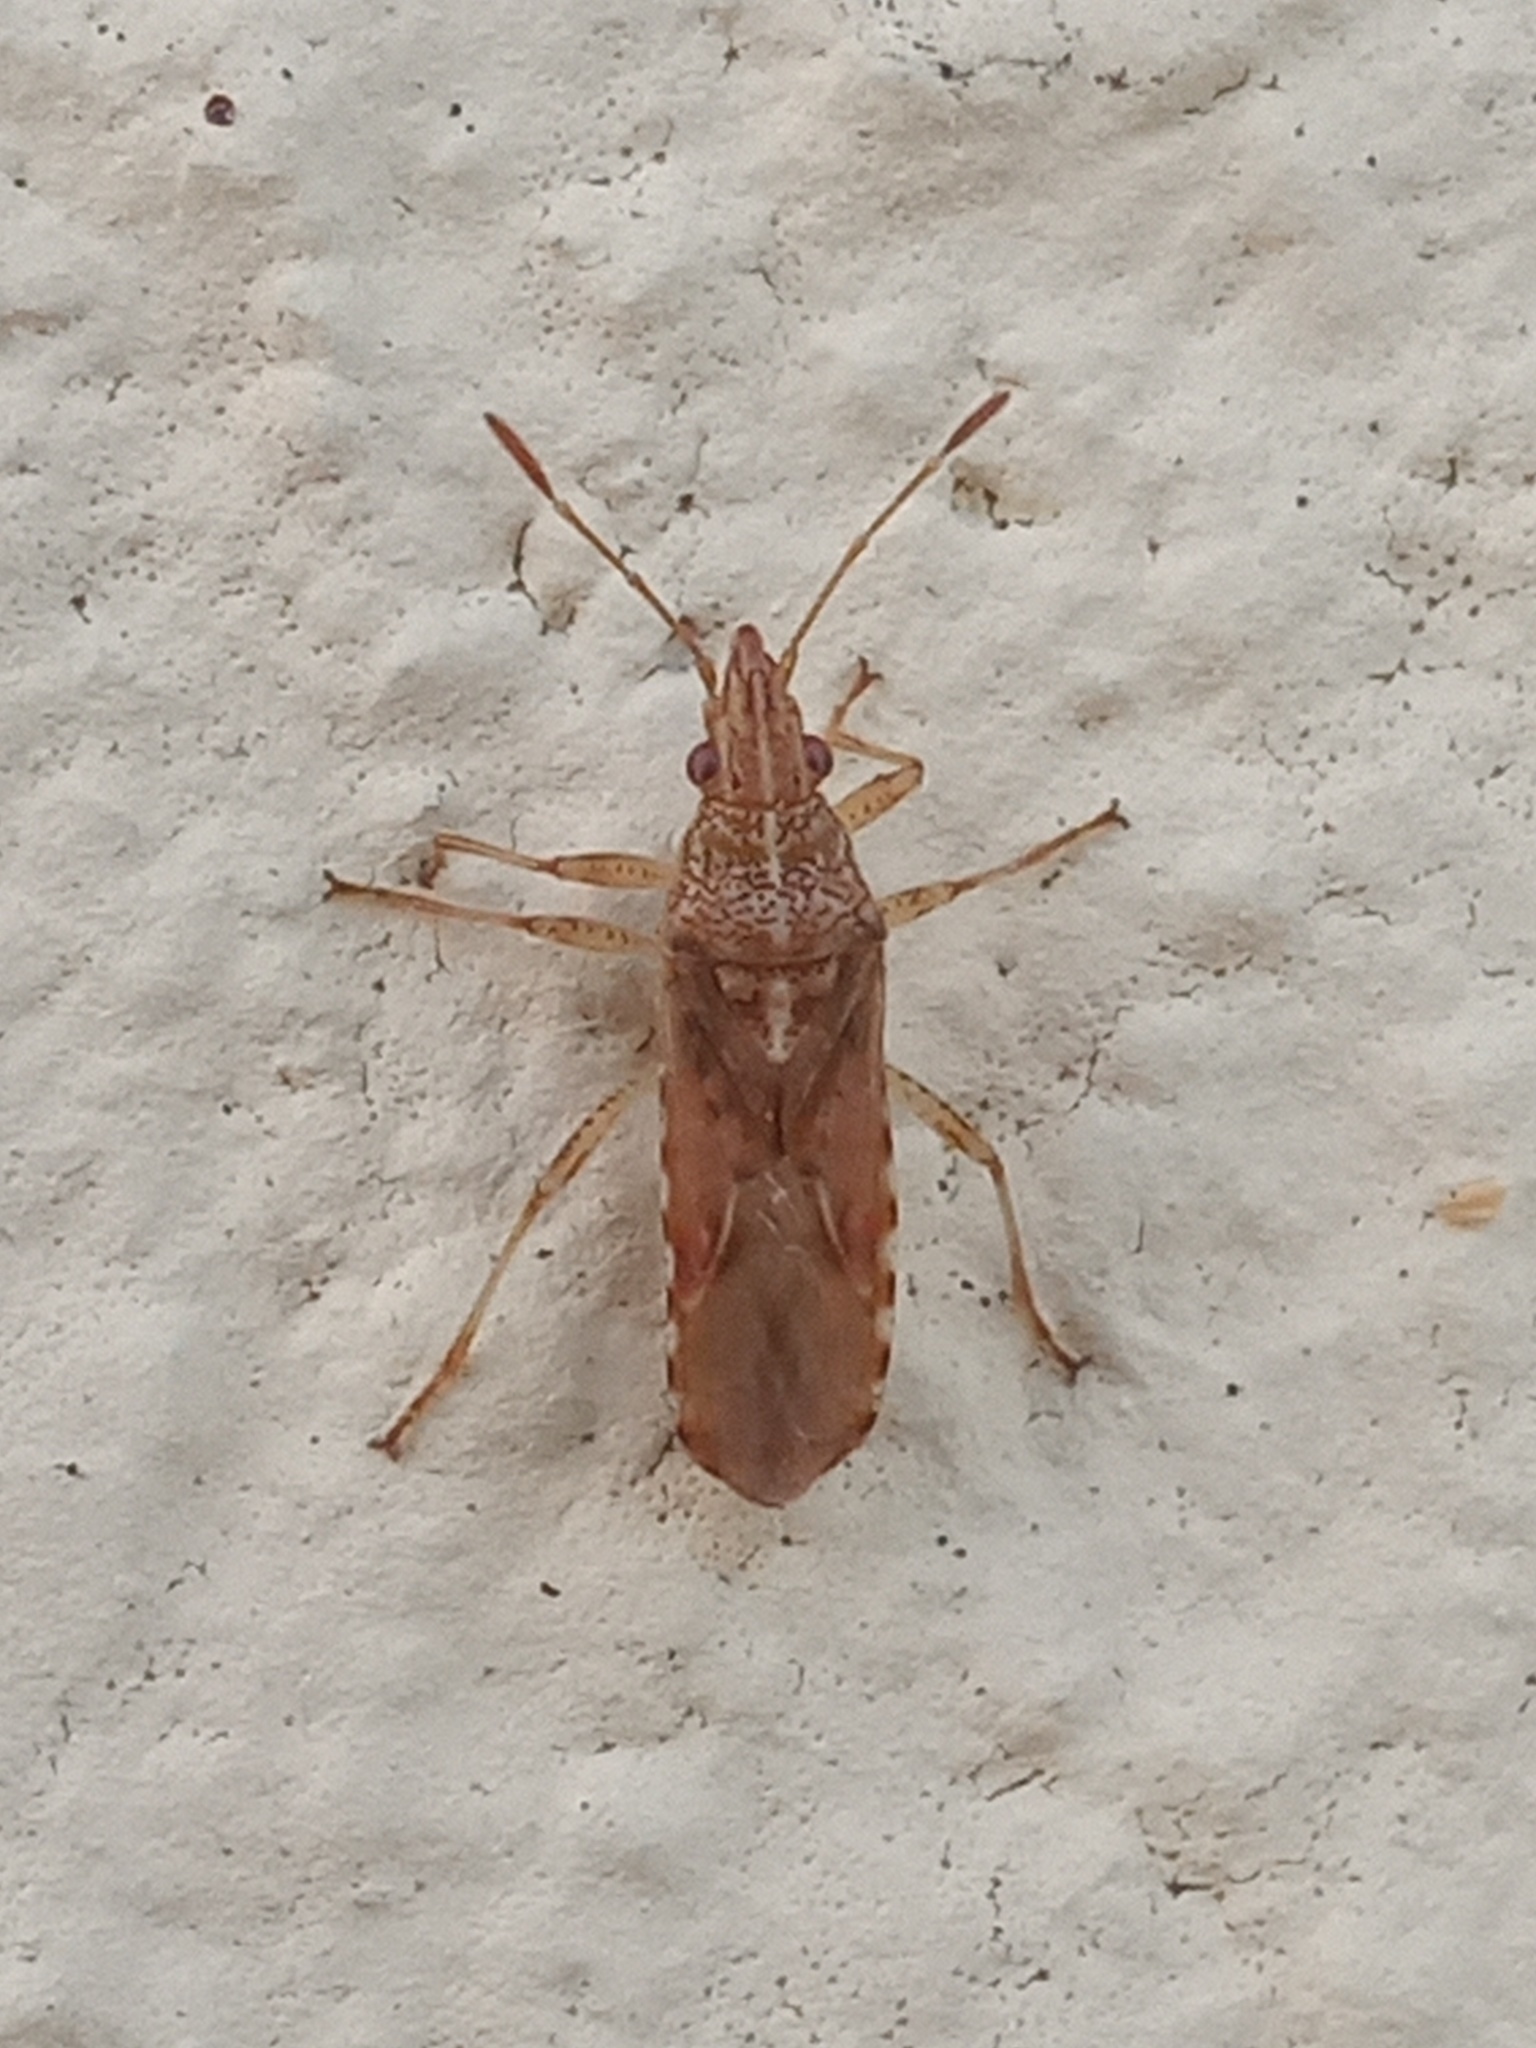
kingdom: Animalia
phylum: Arthropoda
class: Insecta
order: Hemiptera
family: Lygaeidae
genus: Belonochilus
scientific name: Belonochilus numenius
